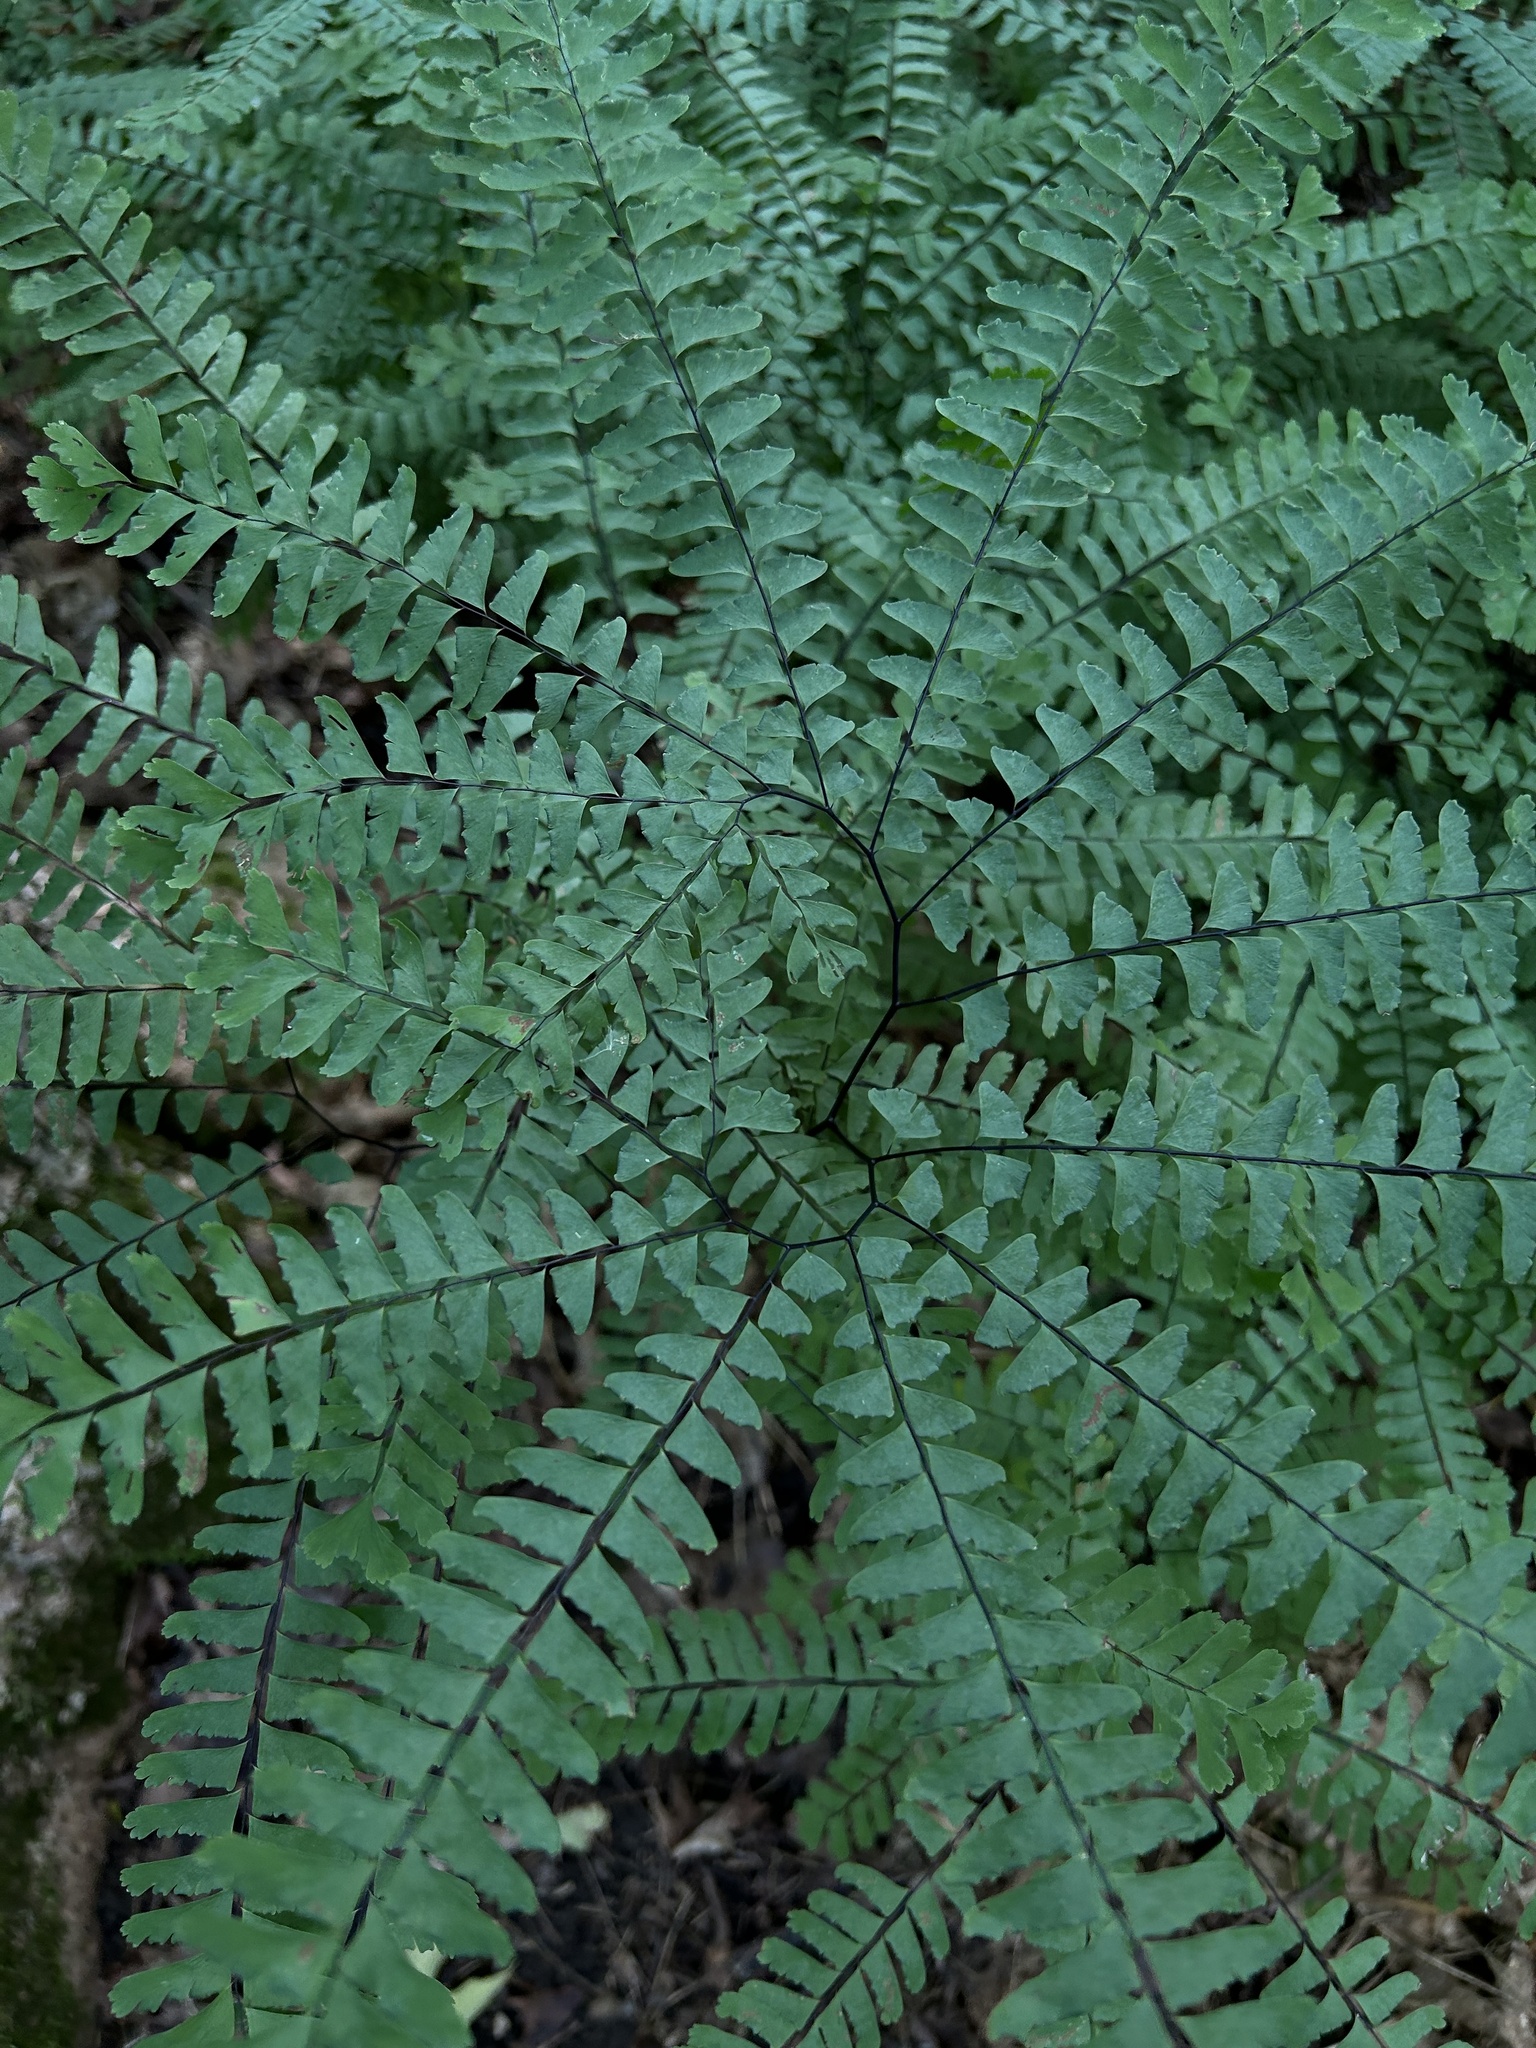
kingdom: Plantae
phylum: Tracheophyta
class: Polypodiopsida
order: Polypodiales
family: Pteridaceae
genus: Adiantum
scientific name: Adiantum pedatum
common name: Five-finger fern
